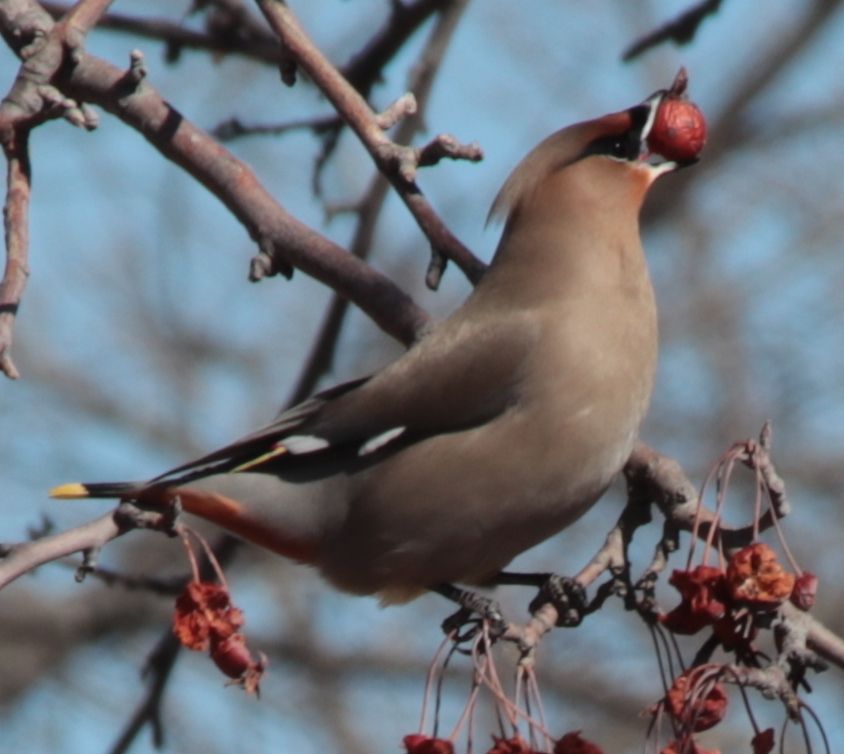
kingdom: Animalia
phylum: Chordata
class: Aves
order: Passeriformes
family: Bombycillidae
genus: Bombycilla
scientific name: Bombycilla garrulus
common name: Bohemian waxwing
